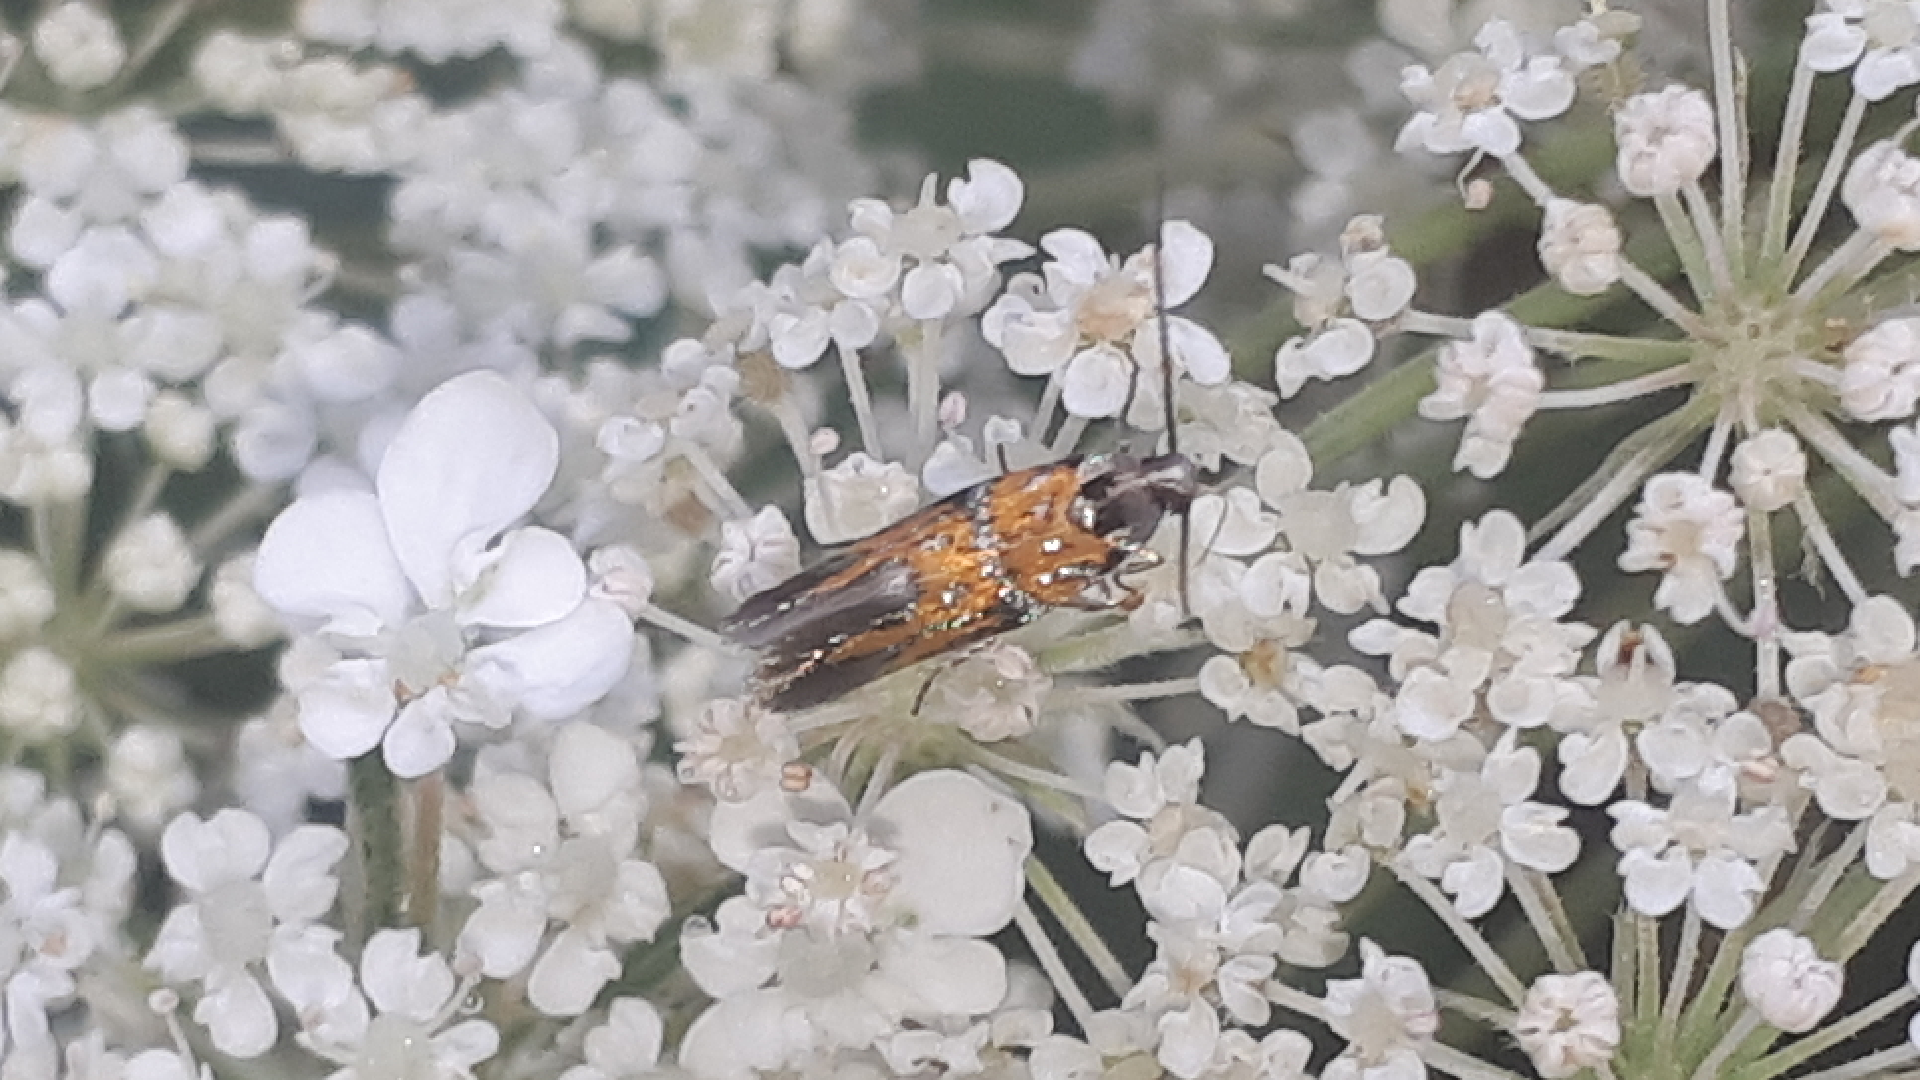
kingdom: Animalia
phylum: Arthropoda
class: Insecta
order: Lepidoptera
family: Gelechiidae
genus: Chrysoesthia
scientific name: Chrysoesthia drurella
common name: Flame neb
